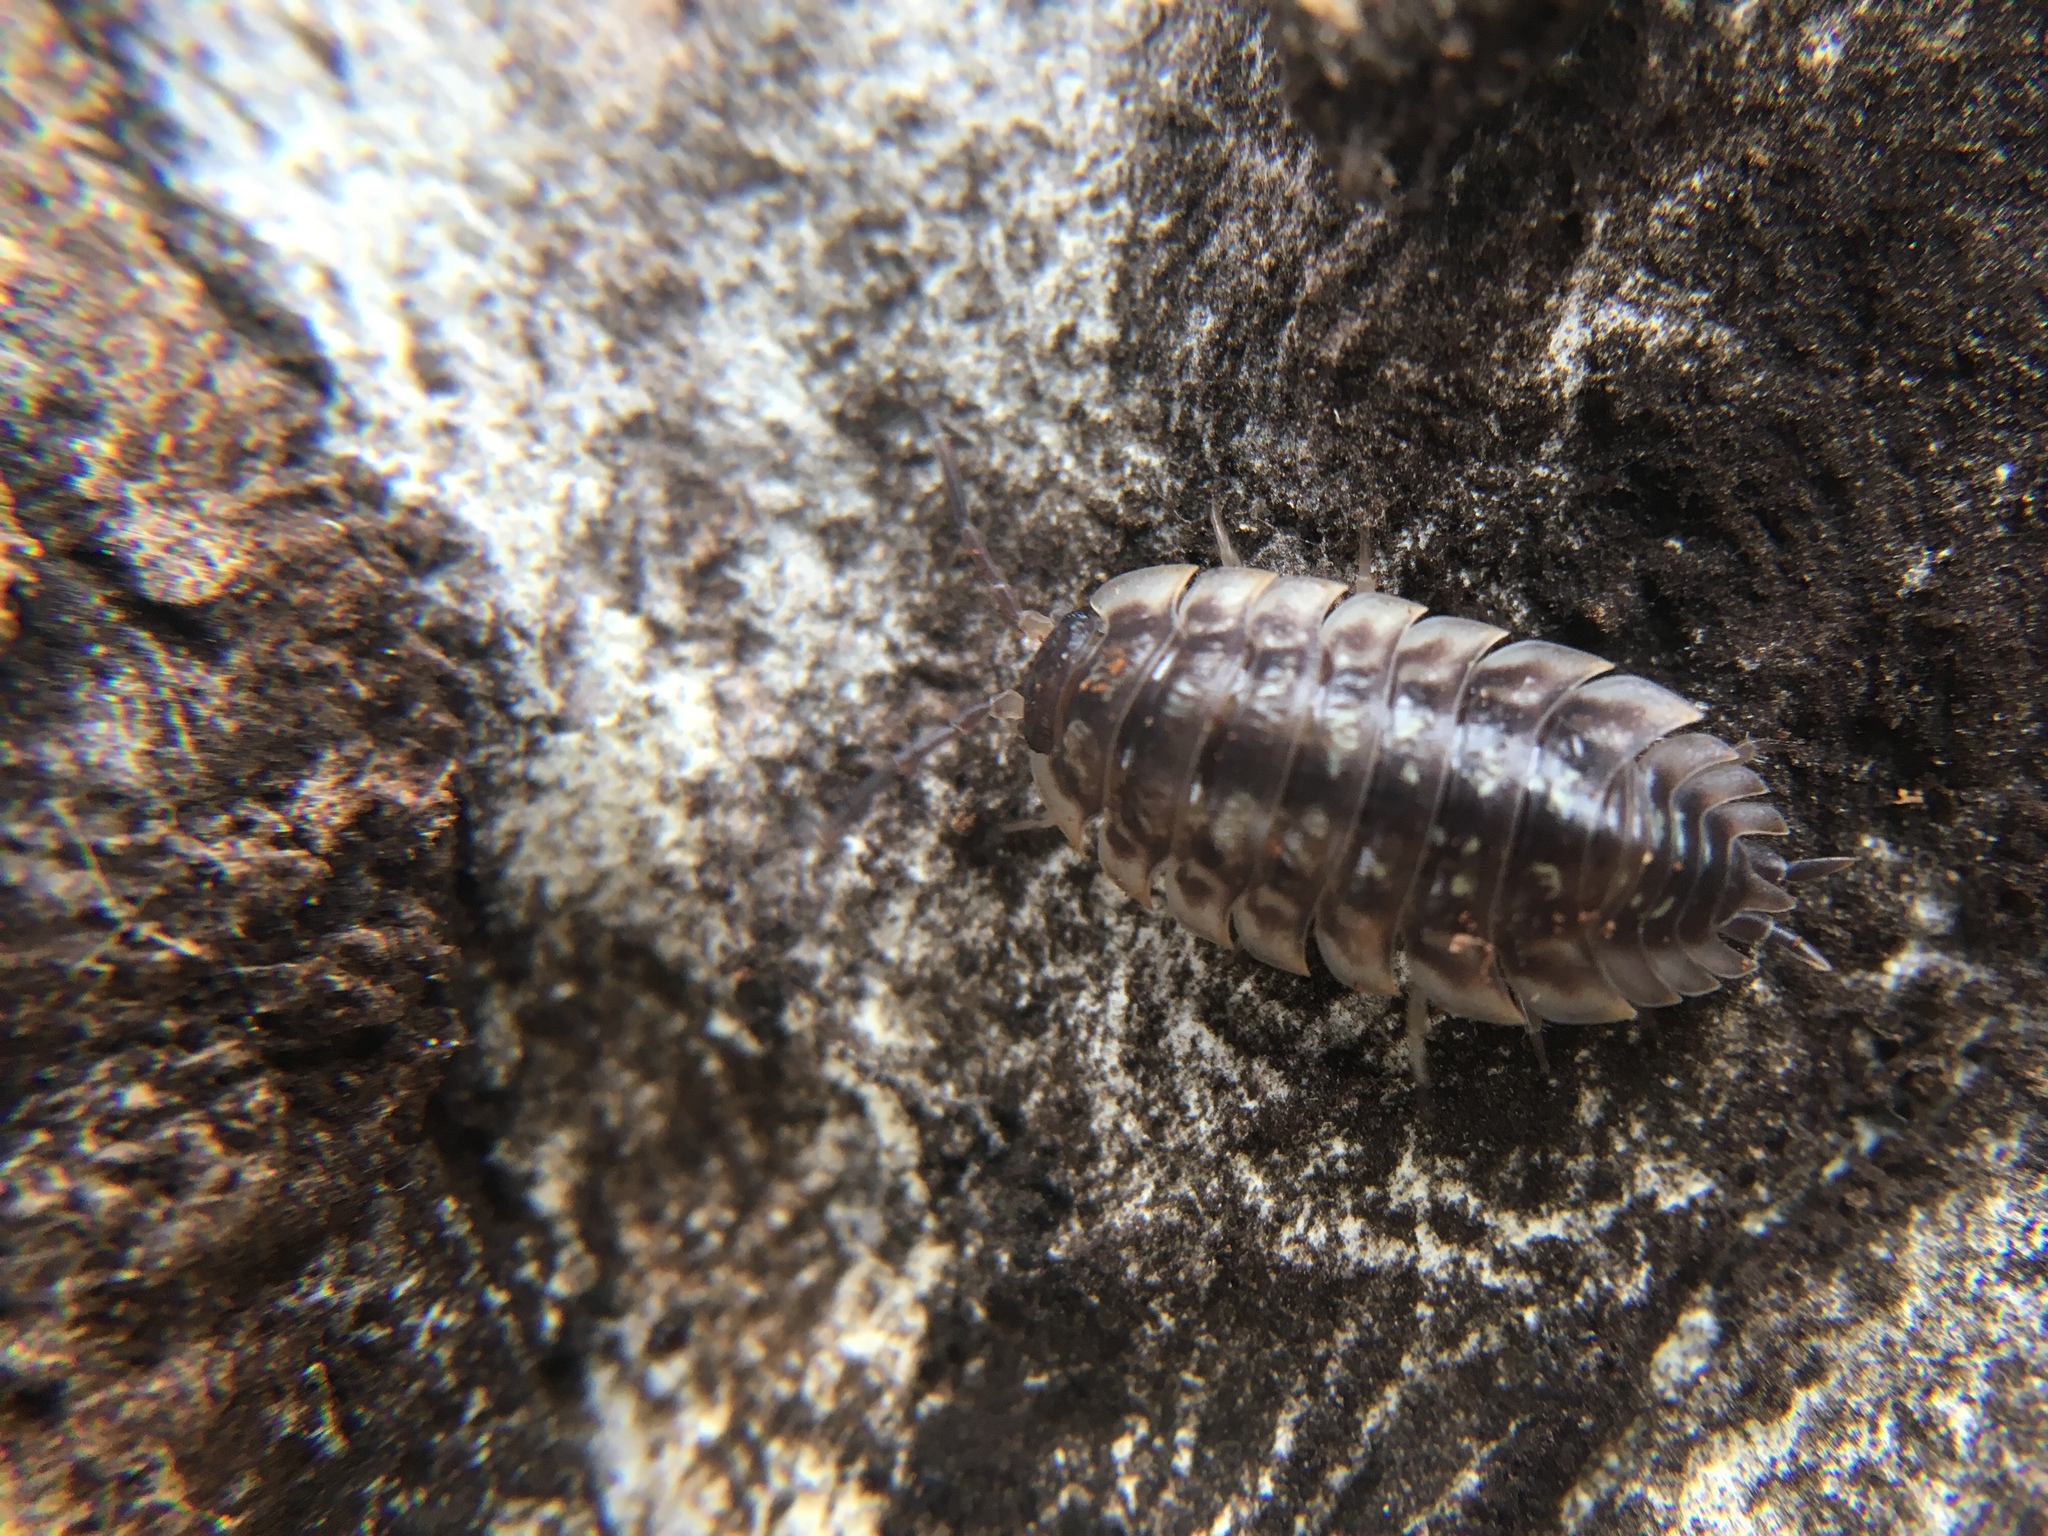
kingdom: Animalia
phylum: Arthropoda
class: Malacostraca
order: Isopoda
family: Oniscidae
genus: Oniscus
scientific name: Oniscus asellus
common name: Common shiny woodlouse
